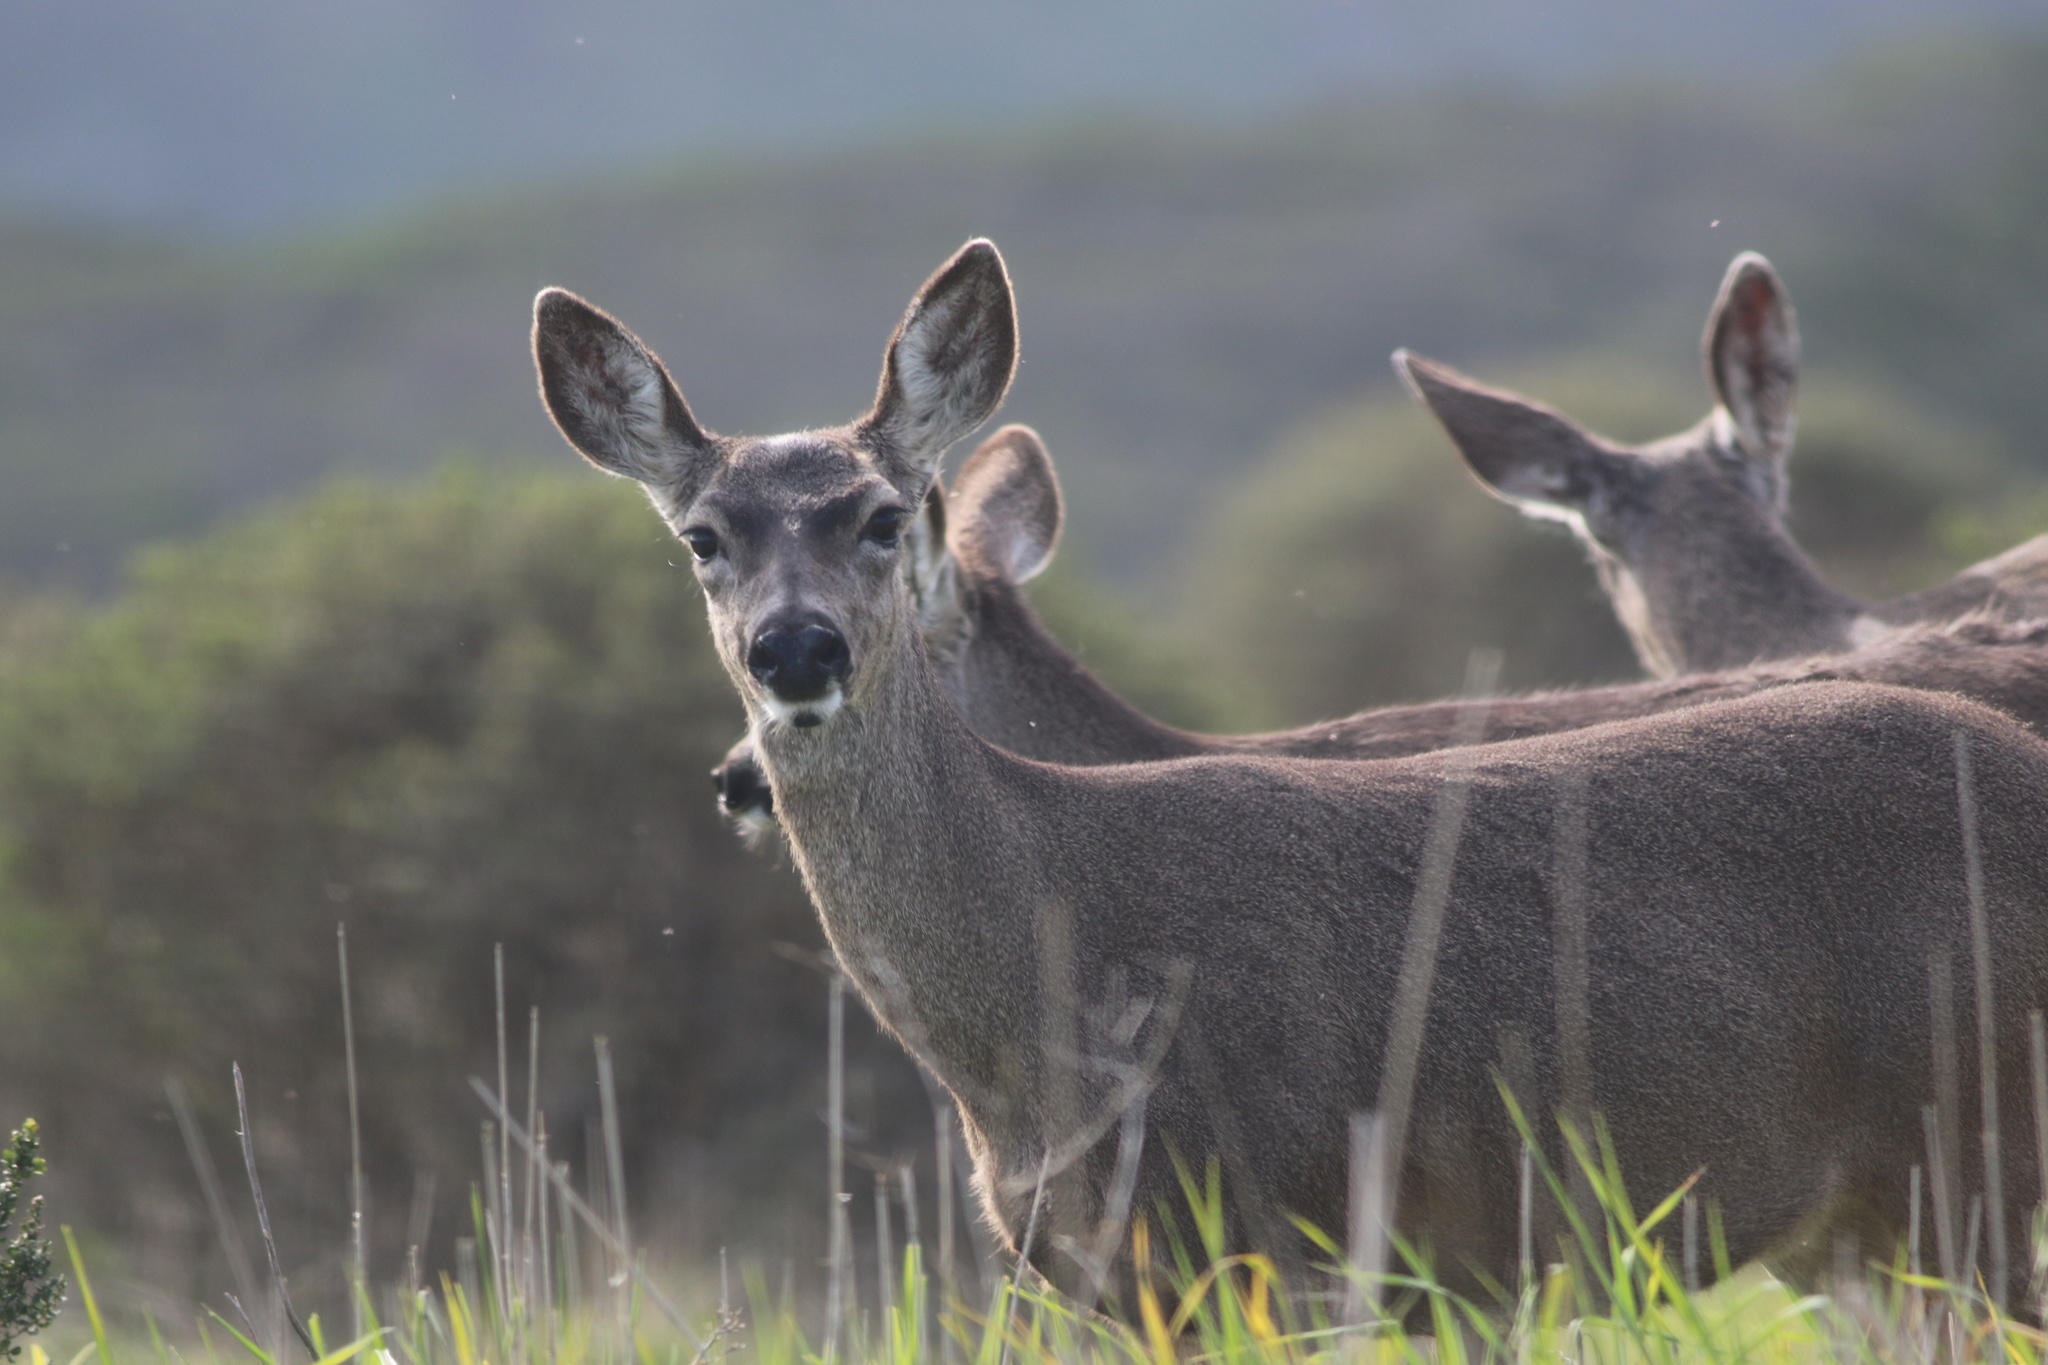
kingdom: Animalia
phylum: Chordata
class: Mammalia
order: Artiodactyla
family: Cervidae
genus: Odocoileus
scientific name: Odocoileus hemionus
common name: Mule deer
